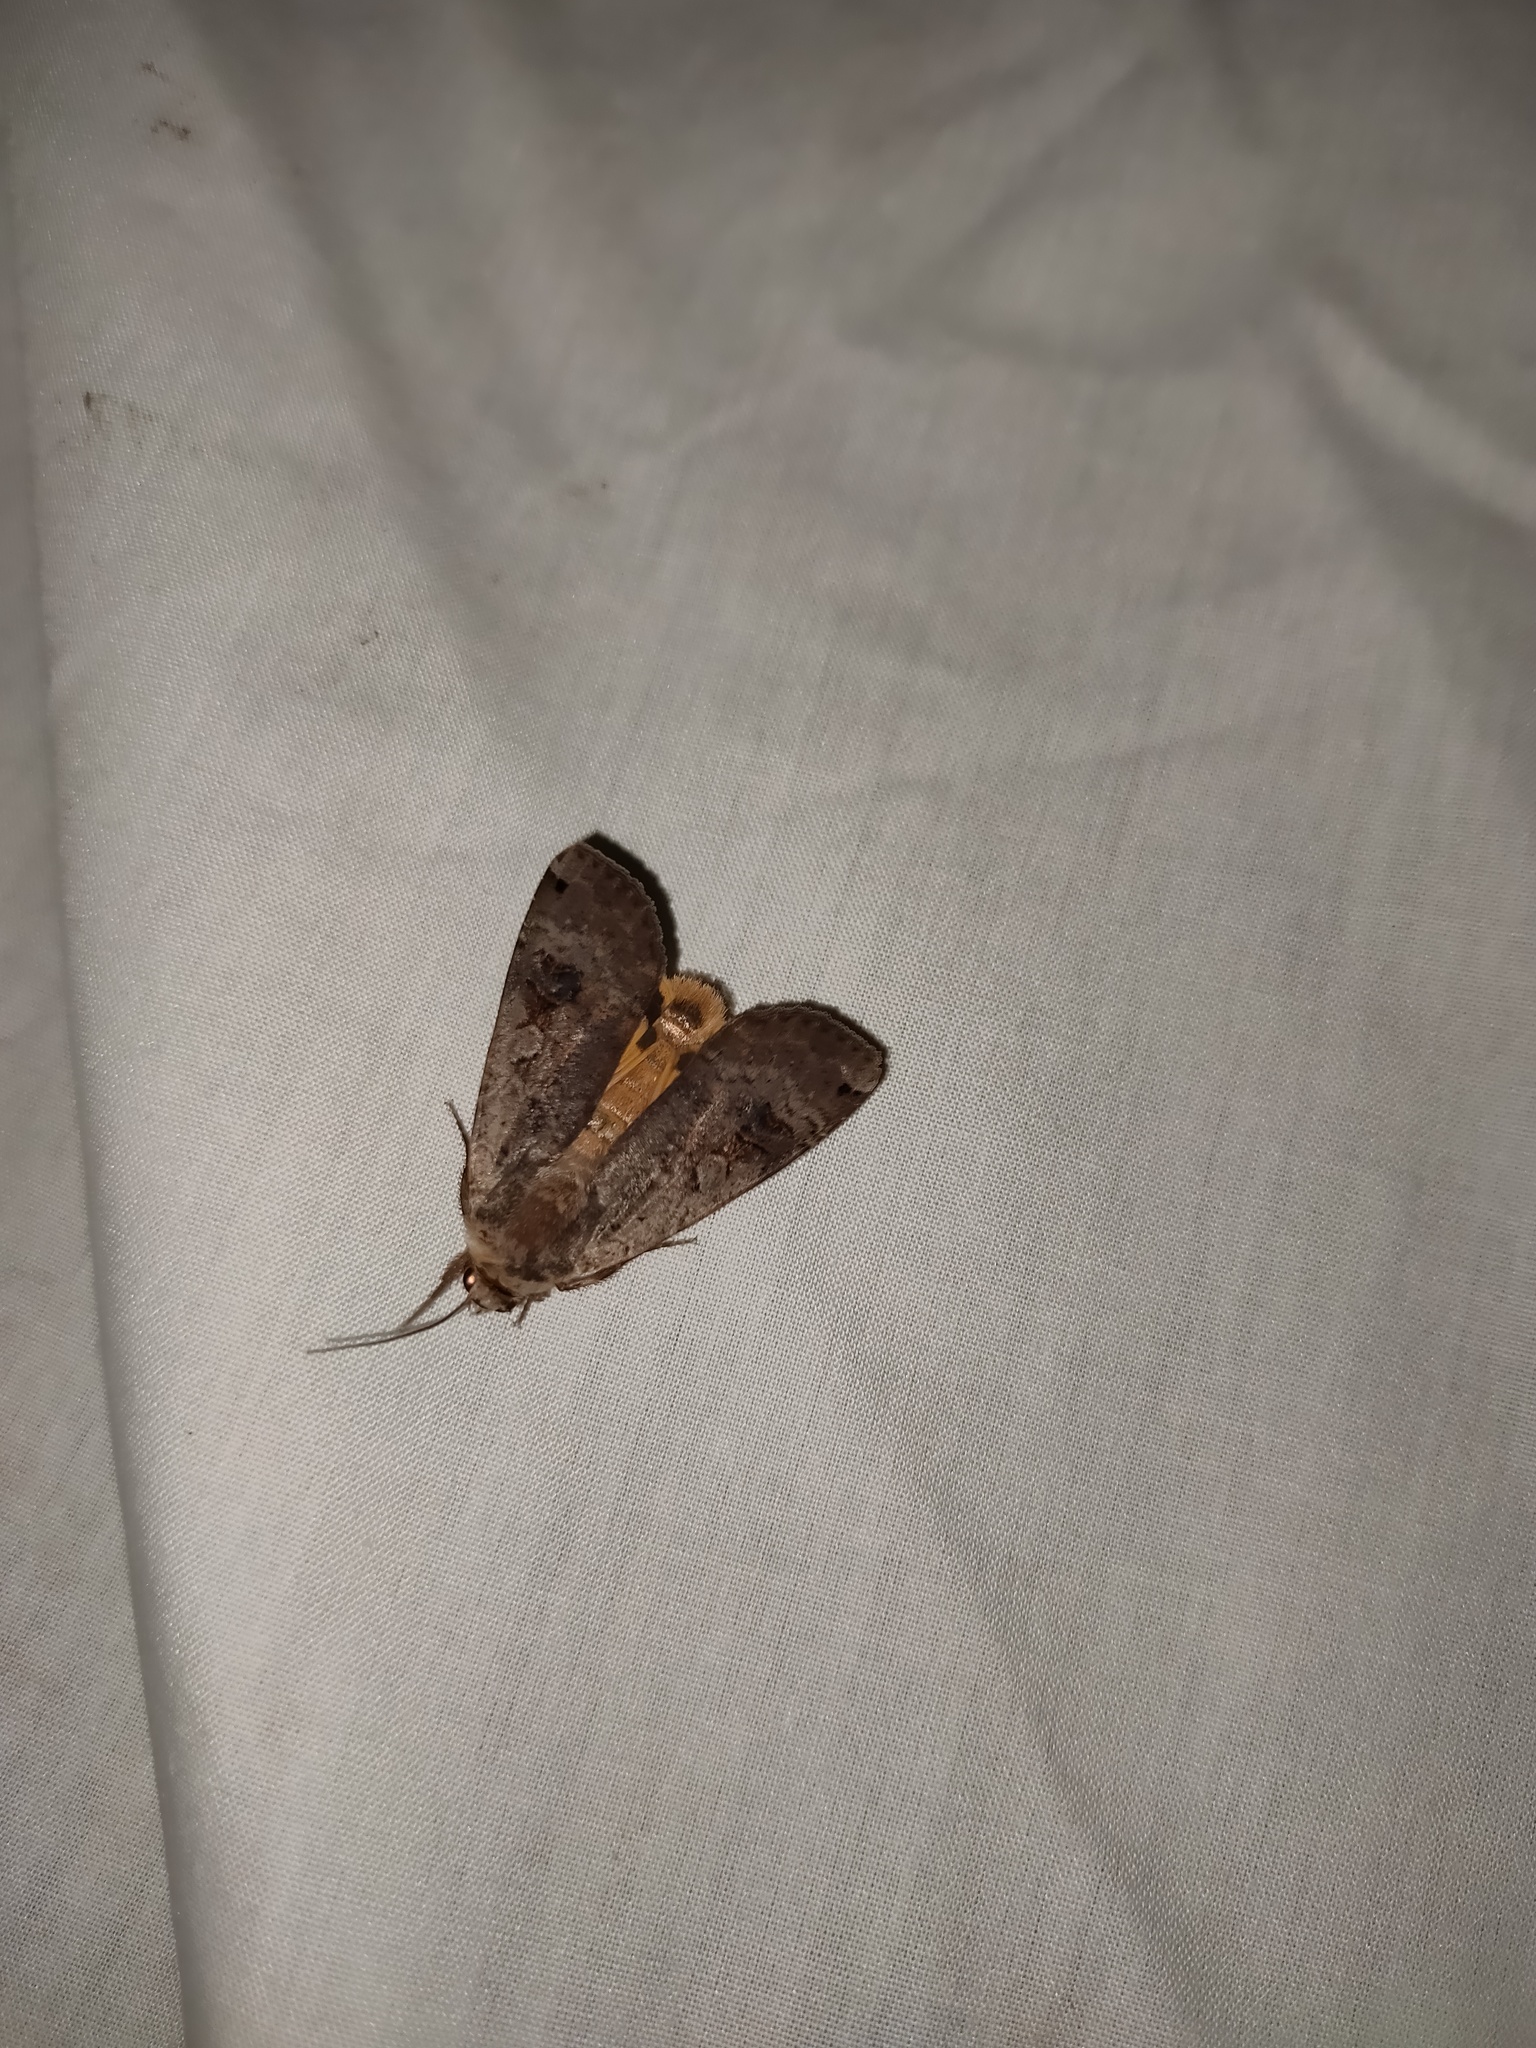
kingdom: Animalia
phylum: Arthropoda
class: Insecta
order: Lepidoptera
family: Noctuidae
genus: Noctua
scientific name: Noctua pronuba
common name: Large yellow underwing
